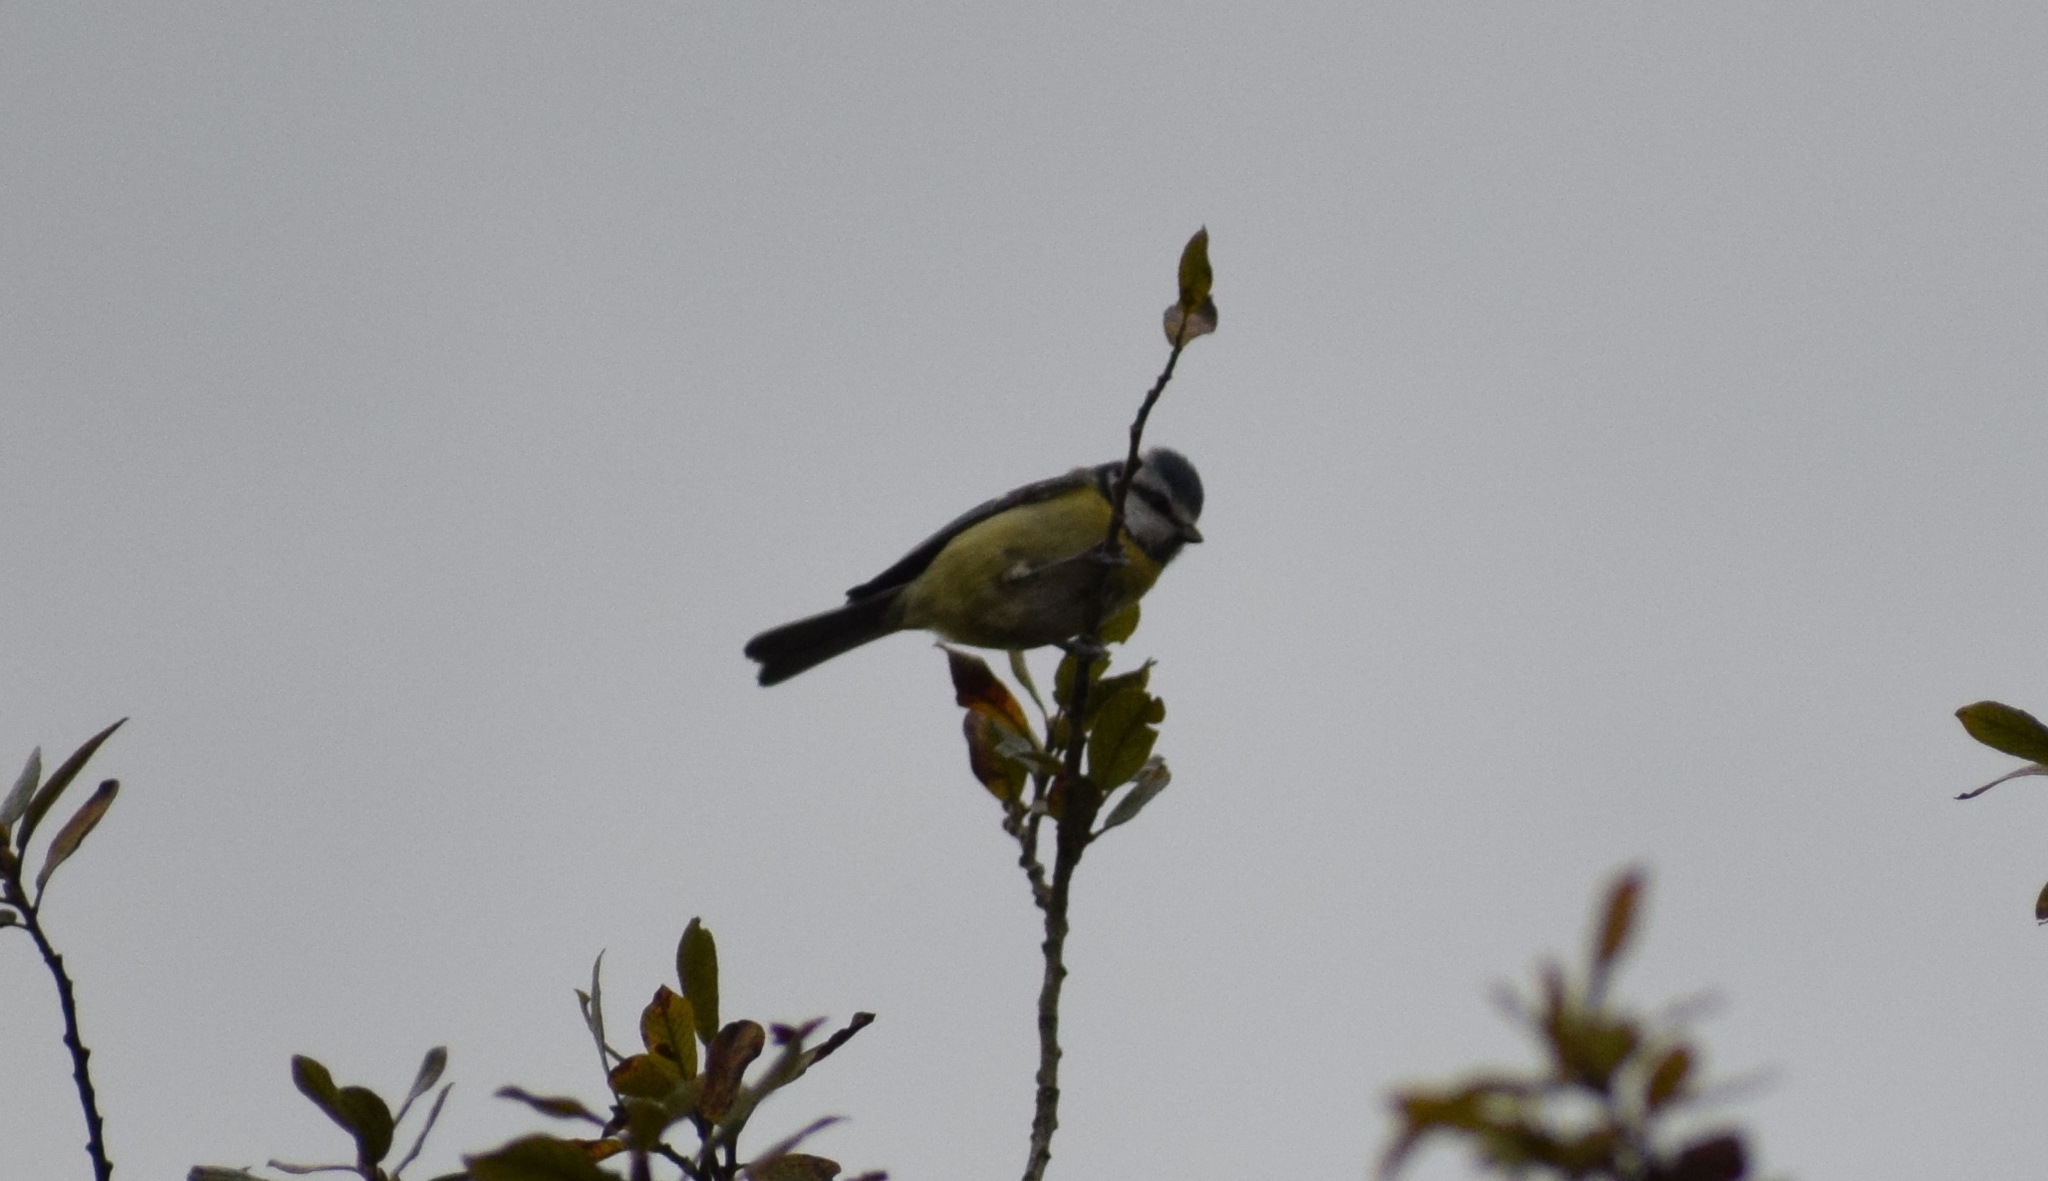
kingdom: Animalia
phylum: Chordata
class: Aves
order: Passeriformes
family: Paridae
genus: Cyanistes
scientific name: Cyanistes caeruleus
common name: Eurasian blue tit
